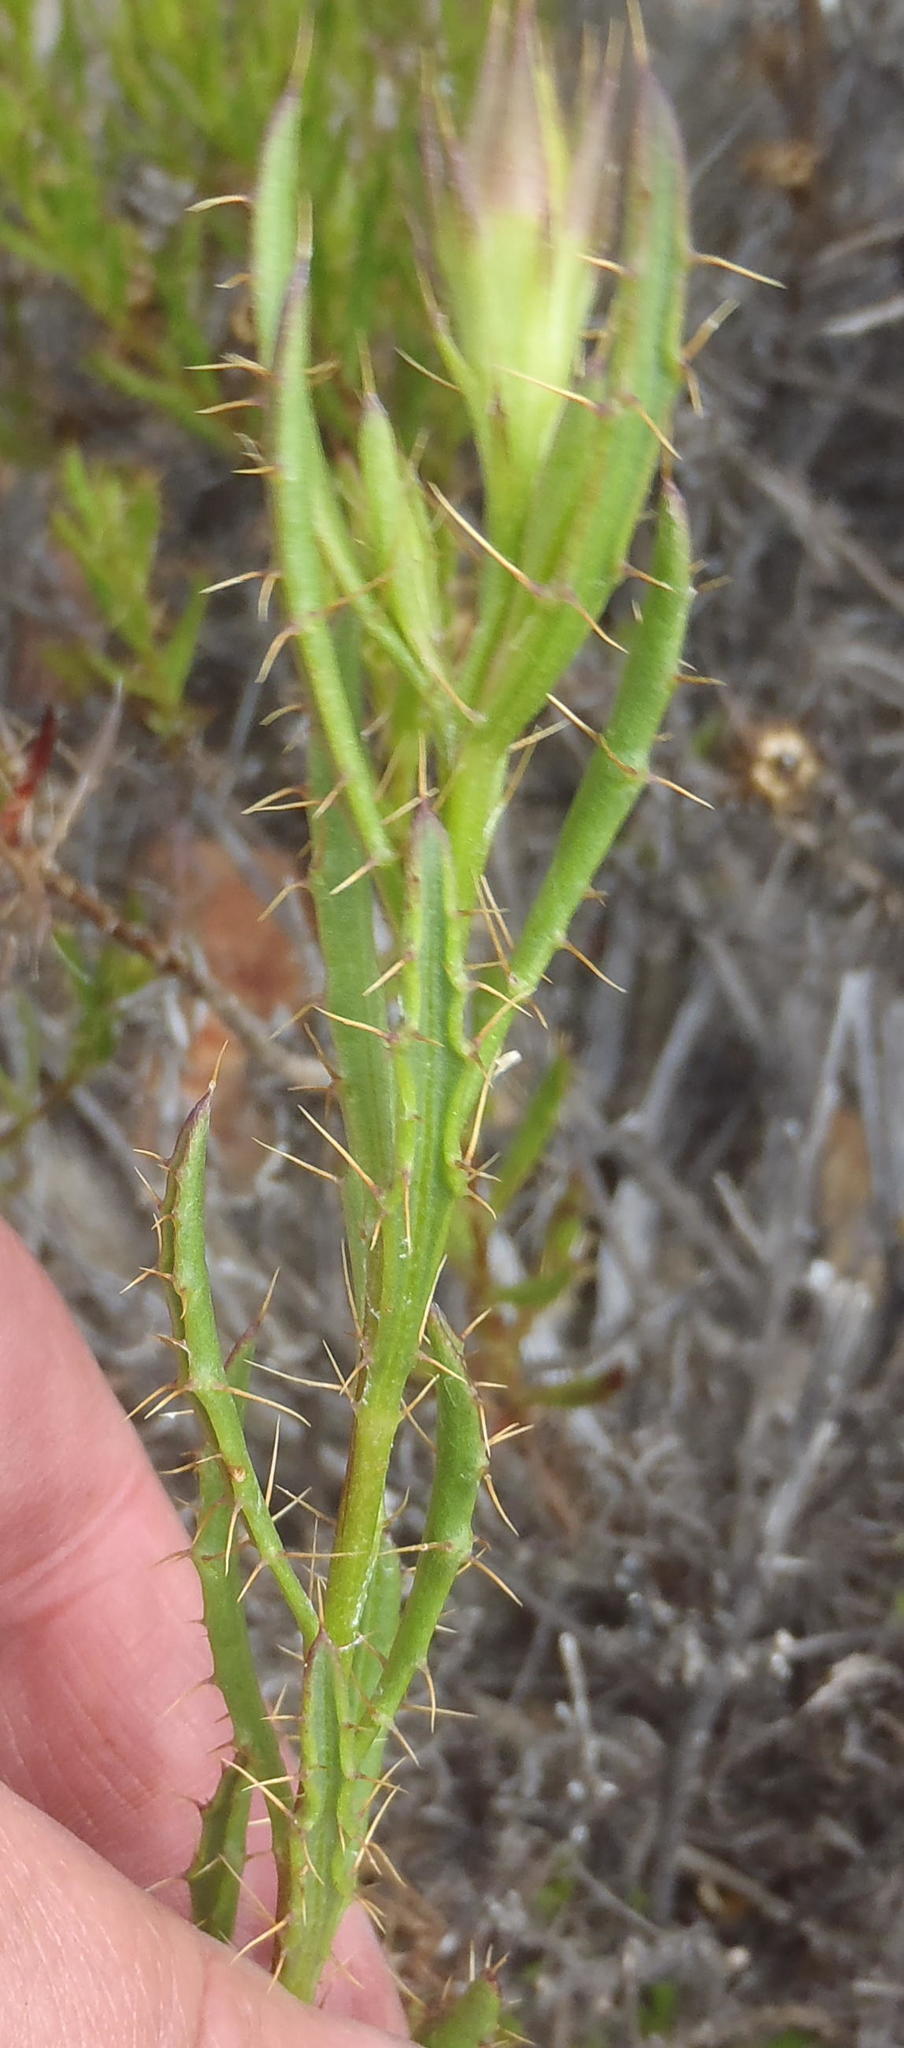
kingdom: Plantae
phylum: Tracheophyta
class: Magnoliopsida
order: Asterales
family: Asteraceae
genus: Cullumia
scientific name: Cullumia aculeata
